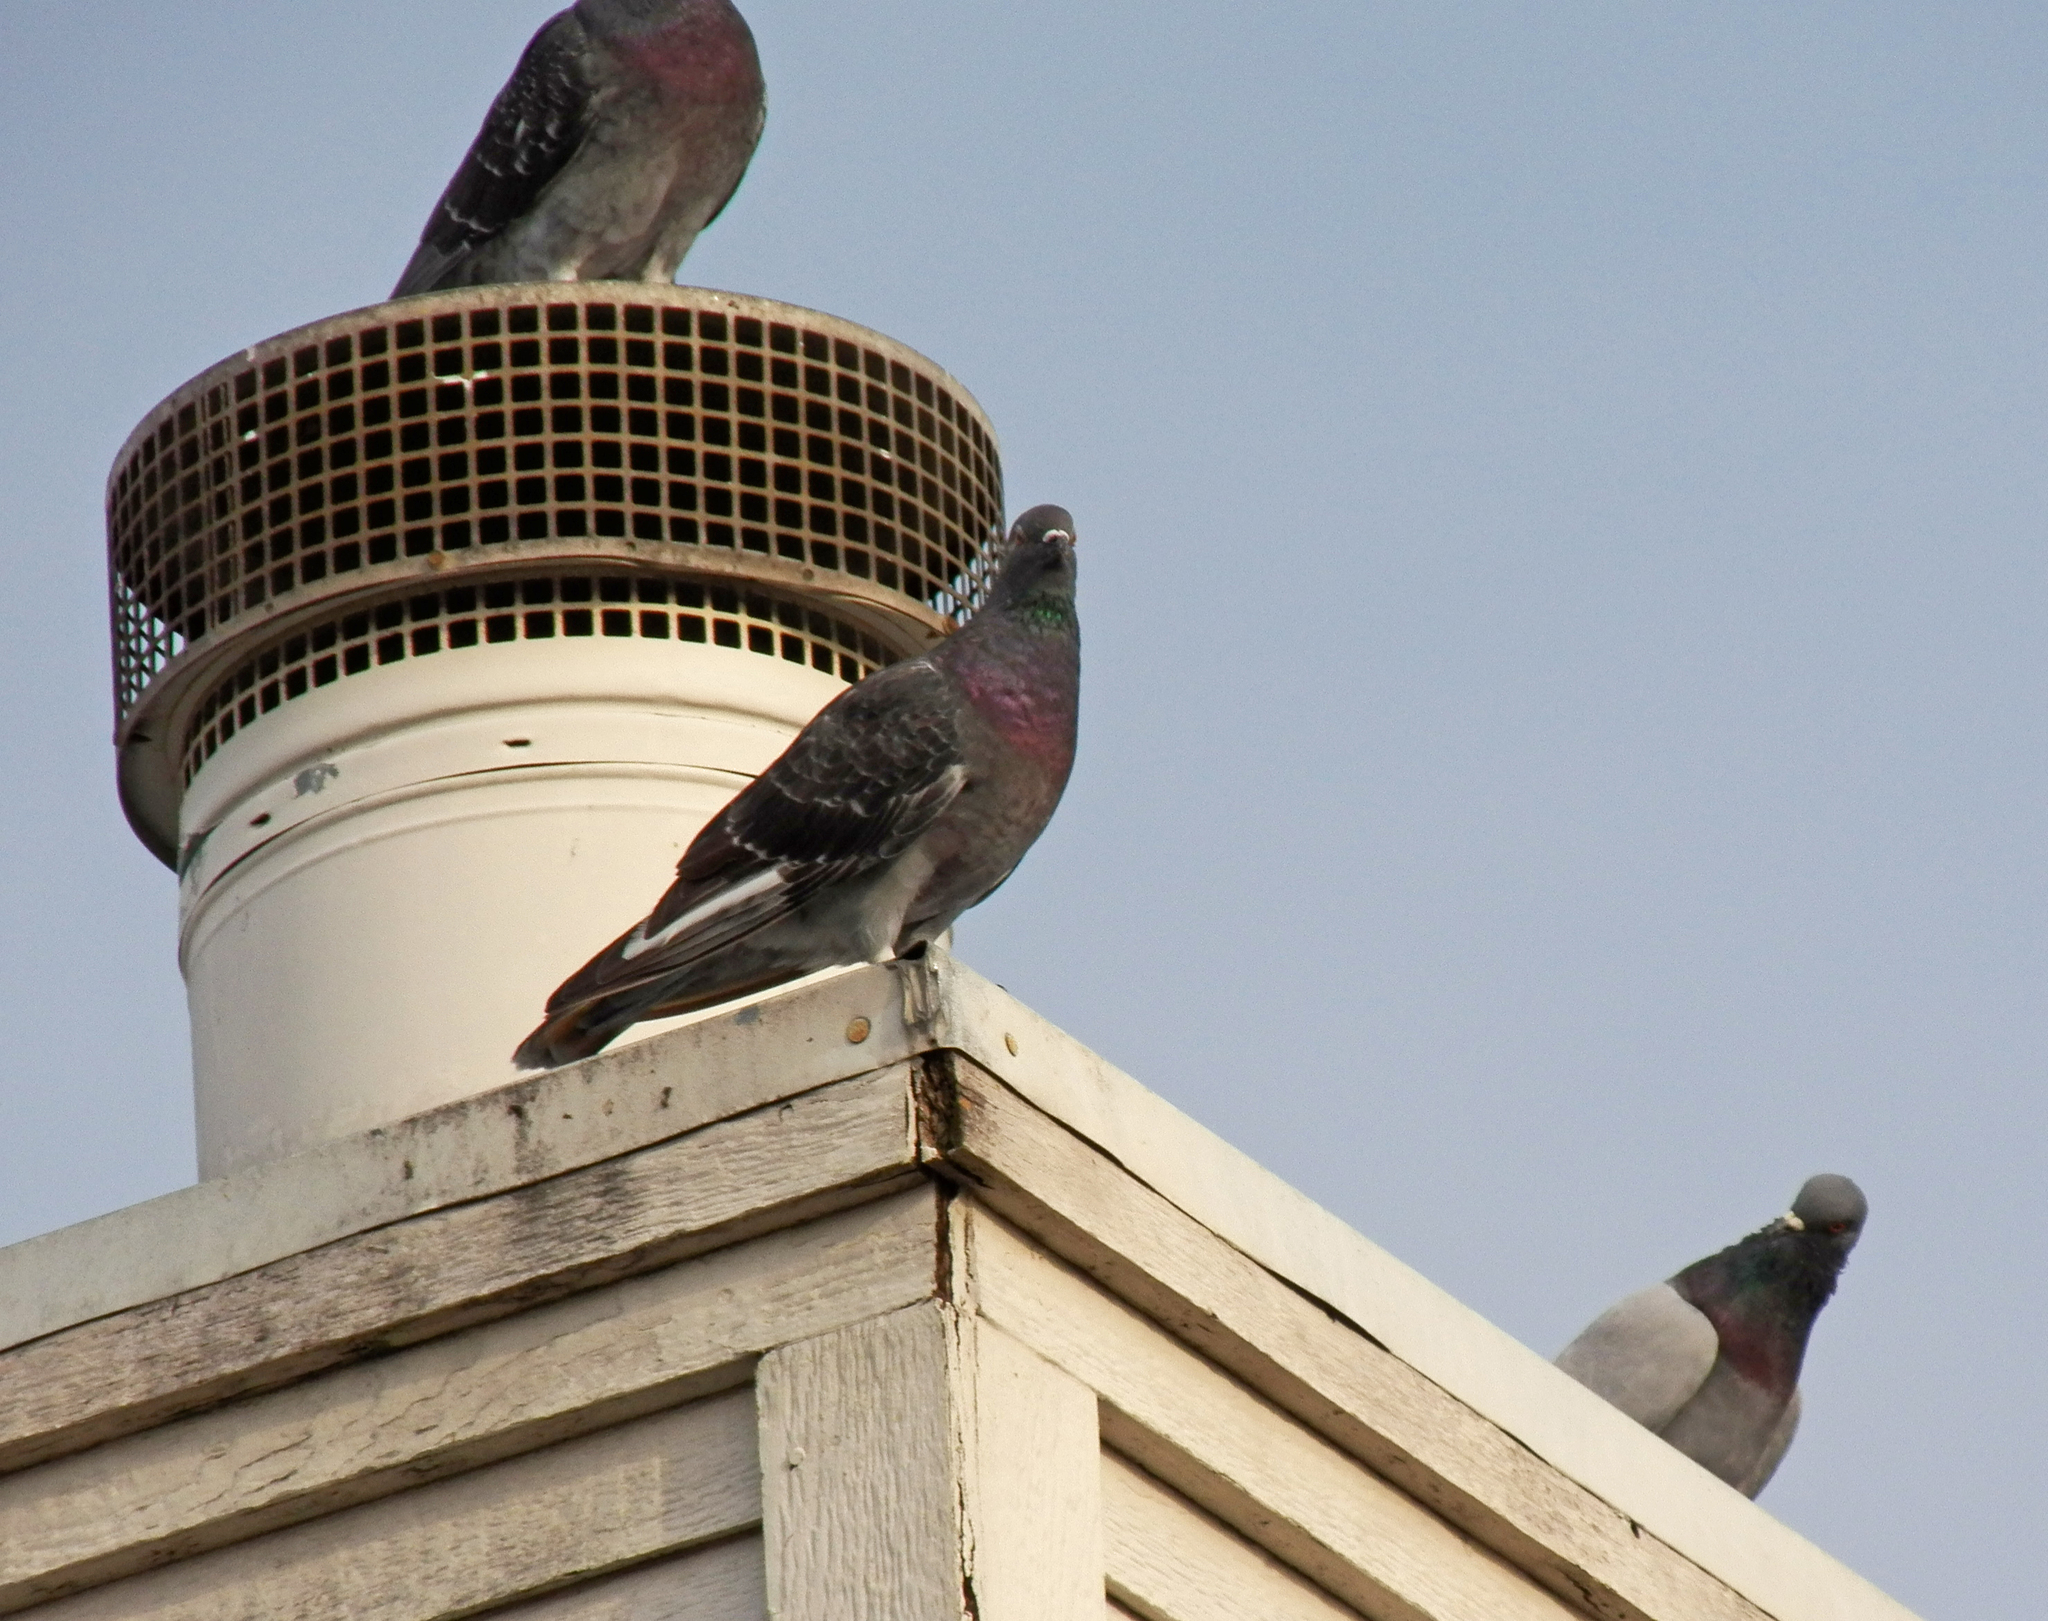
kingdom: Animalia
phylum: Chordata
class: Aves
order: Columbiformes
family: Columbidae
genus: Columba
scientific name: Columba livia
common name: Rock pigeon
